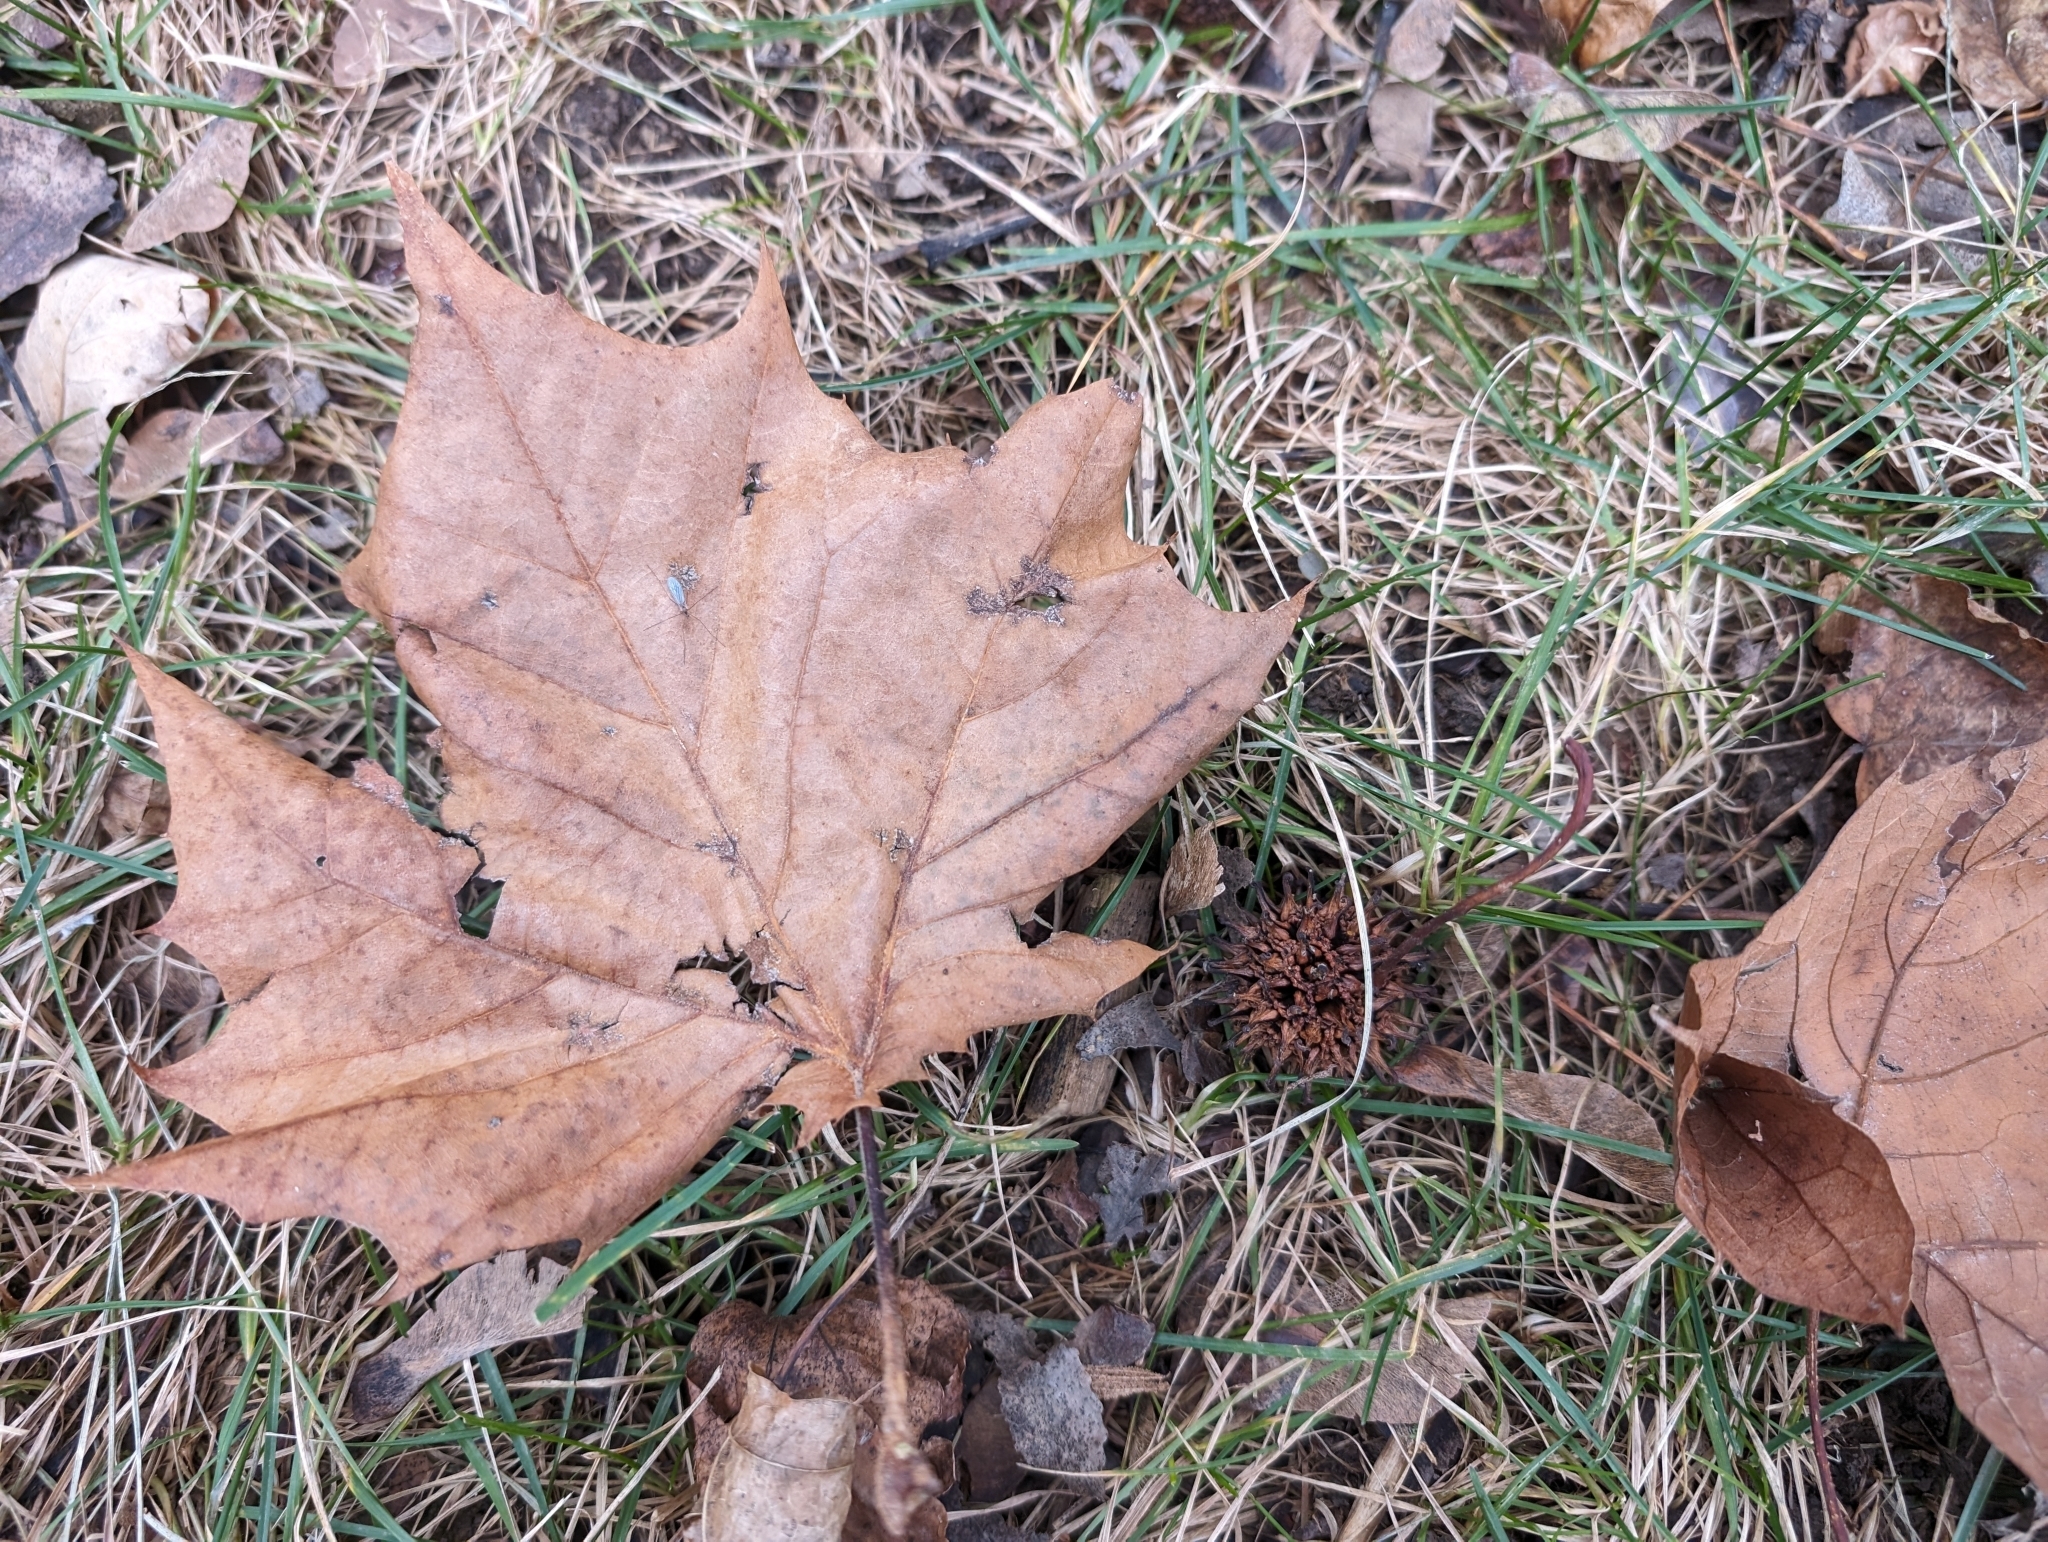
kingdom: Plantae
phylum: Tracheophyta
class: Magnoliopsida
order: Proteales
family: Platanaceae
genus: Platanus
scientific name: Platanus occidentalis
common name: American sycamore
